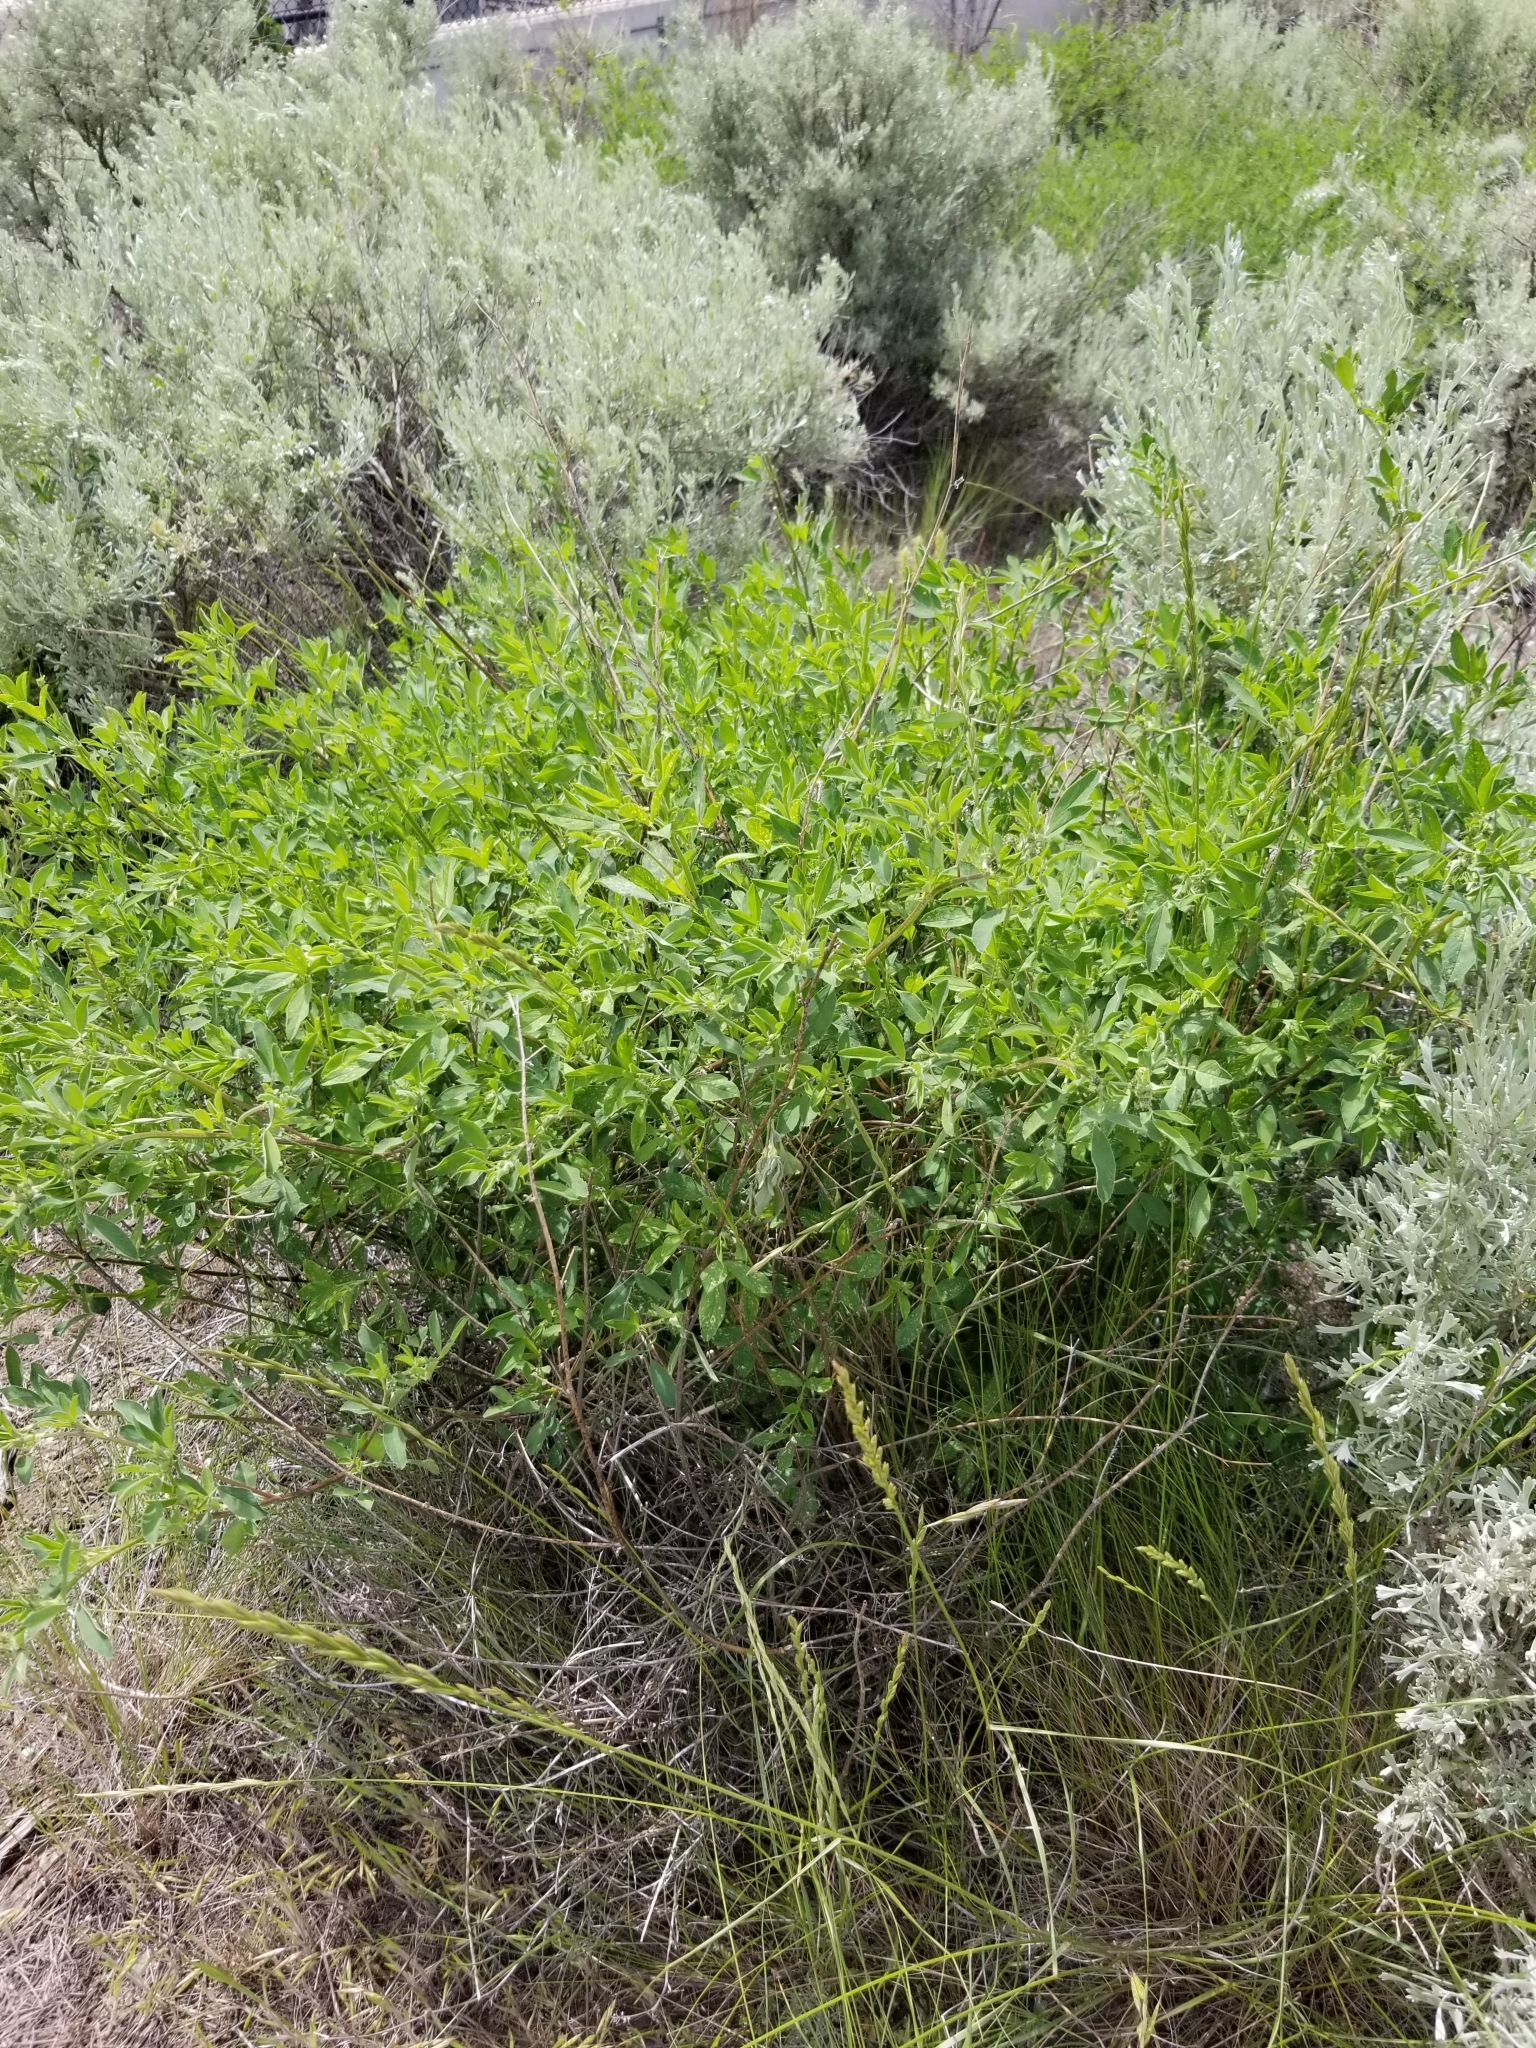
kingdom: Plantae
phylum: Tracheophyta
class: Magnoliopsida
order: Fabales
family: Fabaceae
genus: Medicago
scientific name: Medicago sativa
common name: Alfalfa
